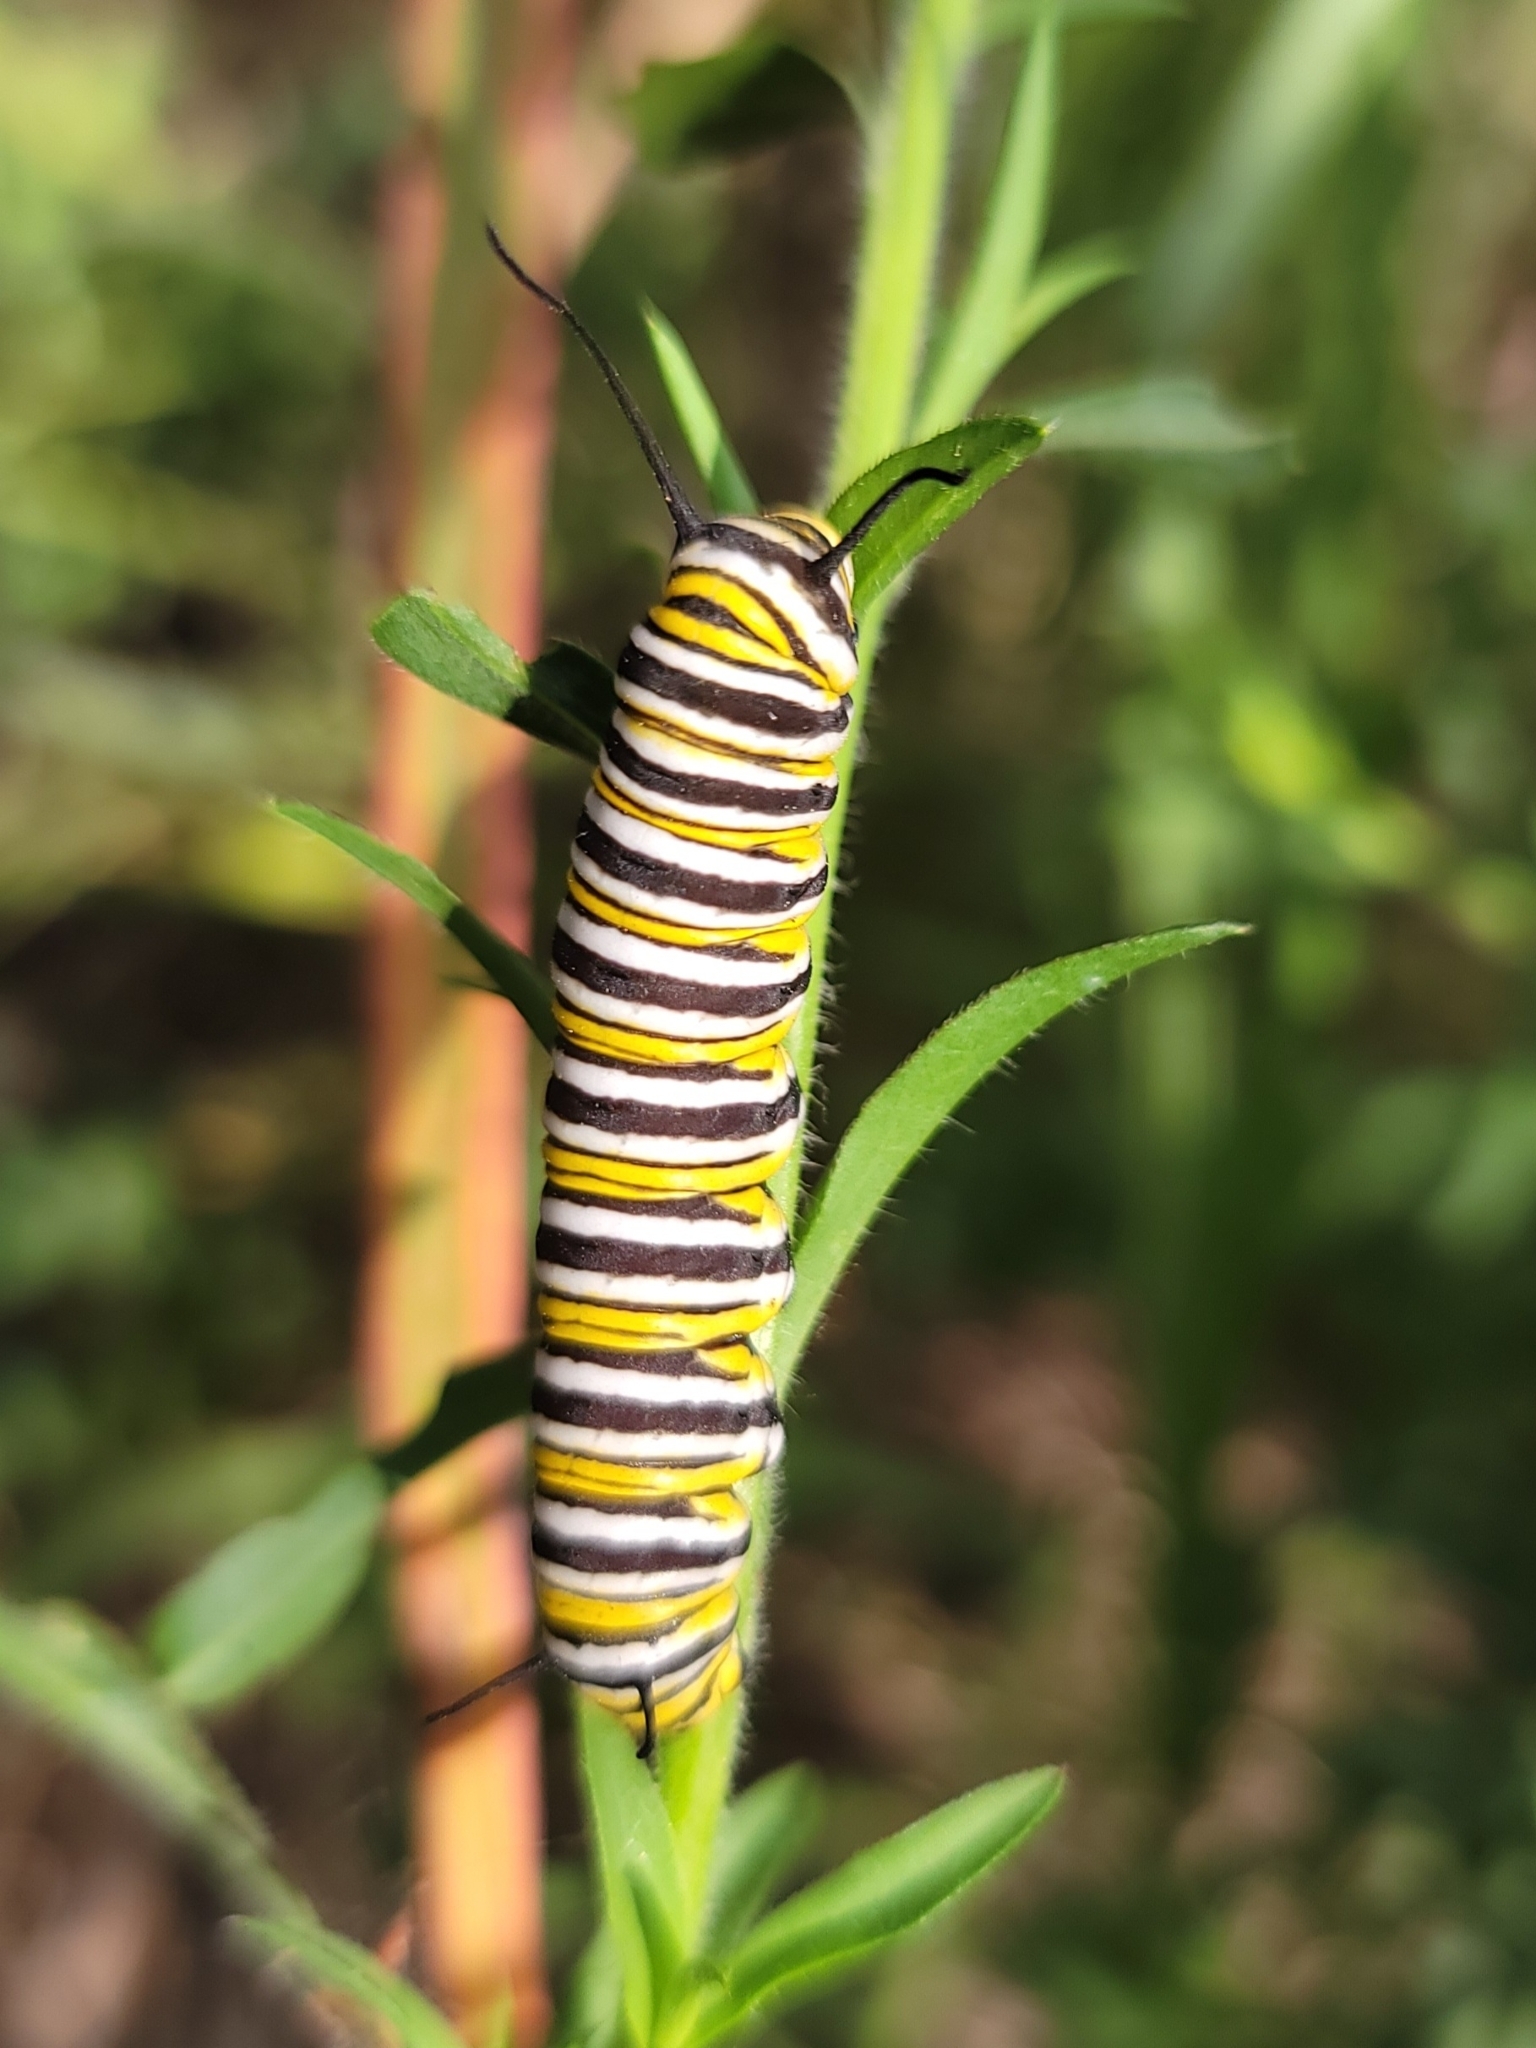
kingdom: Animalia
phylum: Arthropoda
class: Insecta
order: Lepidoptera
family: Nymphalidae
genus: Danaus
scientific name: Danaus plexippus
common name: Monarch
